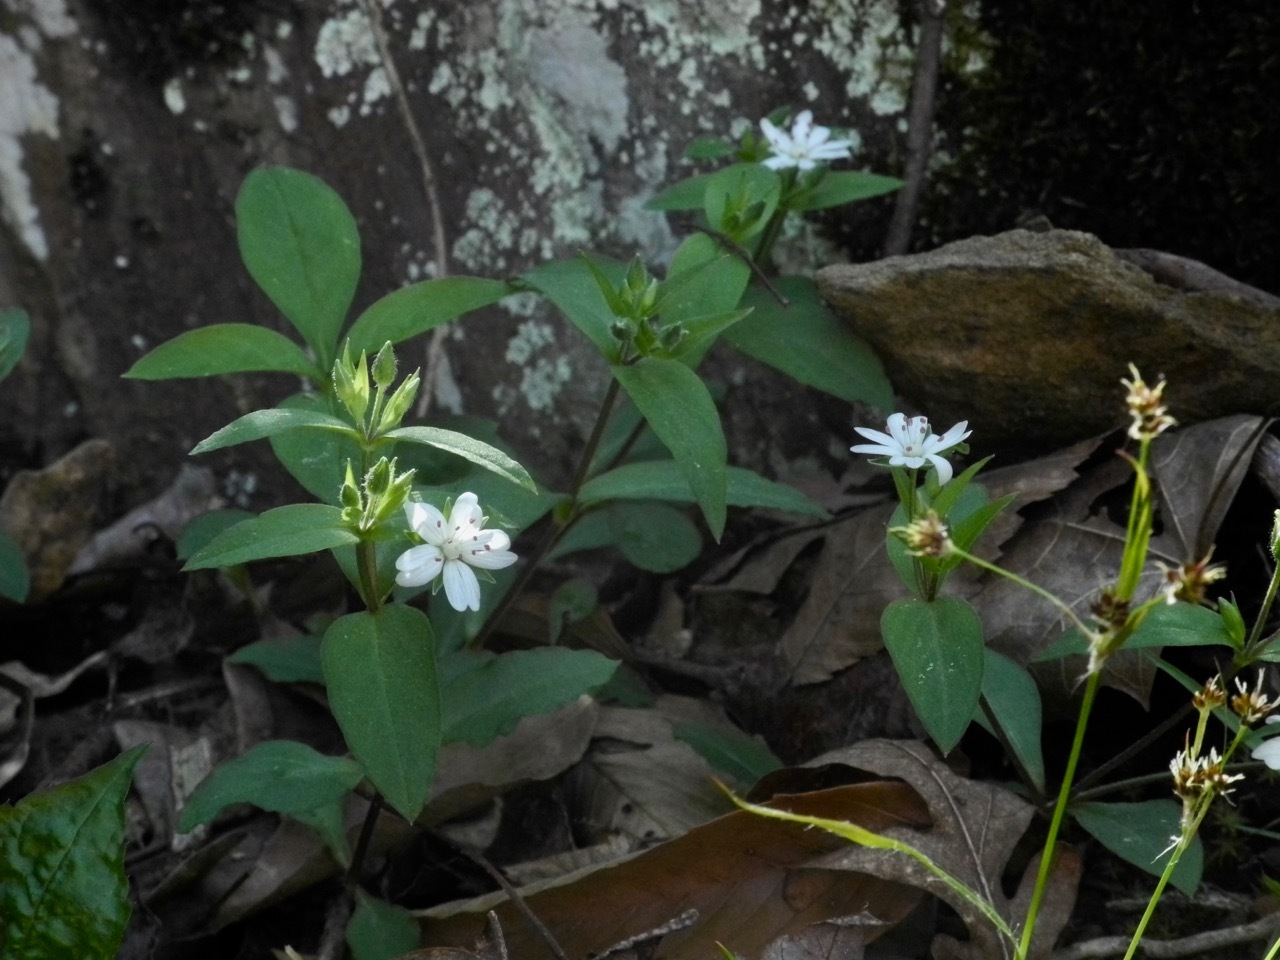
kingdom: Plantae
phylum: Tracheophyta
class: Magnoliopsida
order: Caryophyllales
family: Caryophyllaceae
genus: Stellaria
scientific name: Stellaria pubera
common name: Star chickweed
